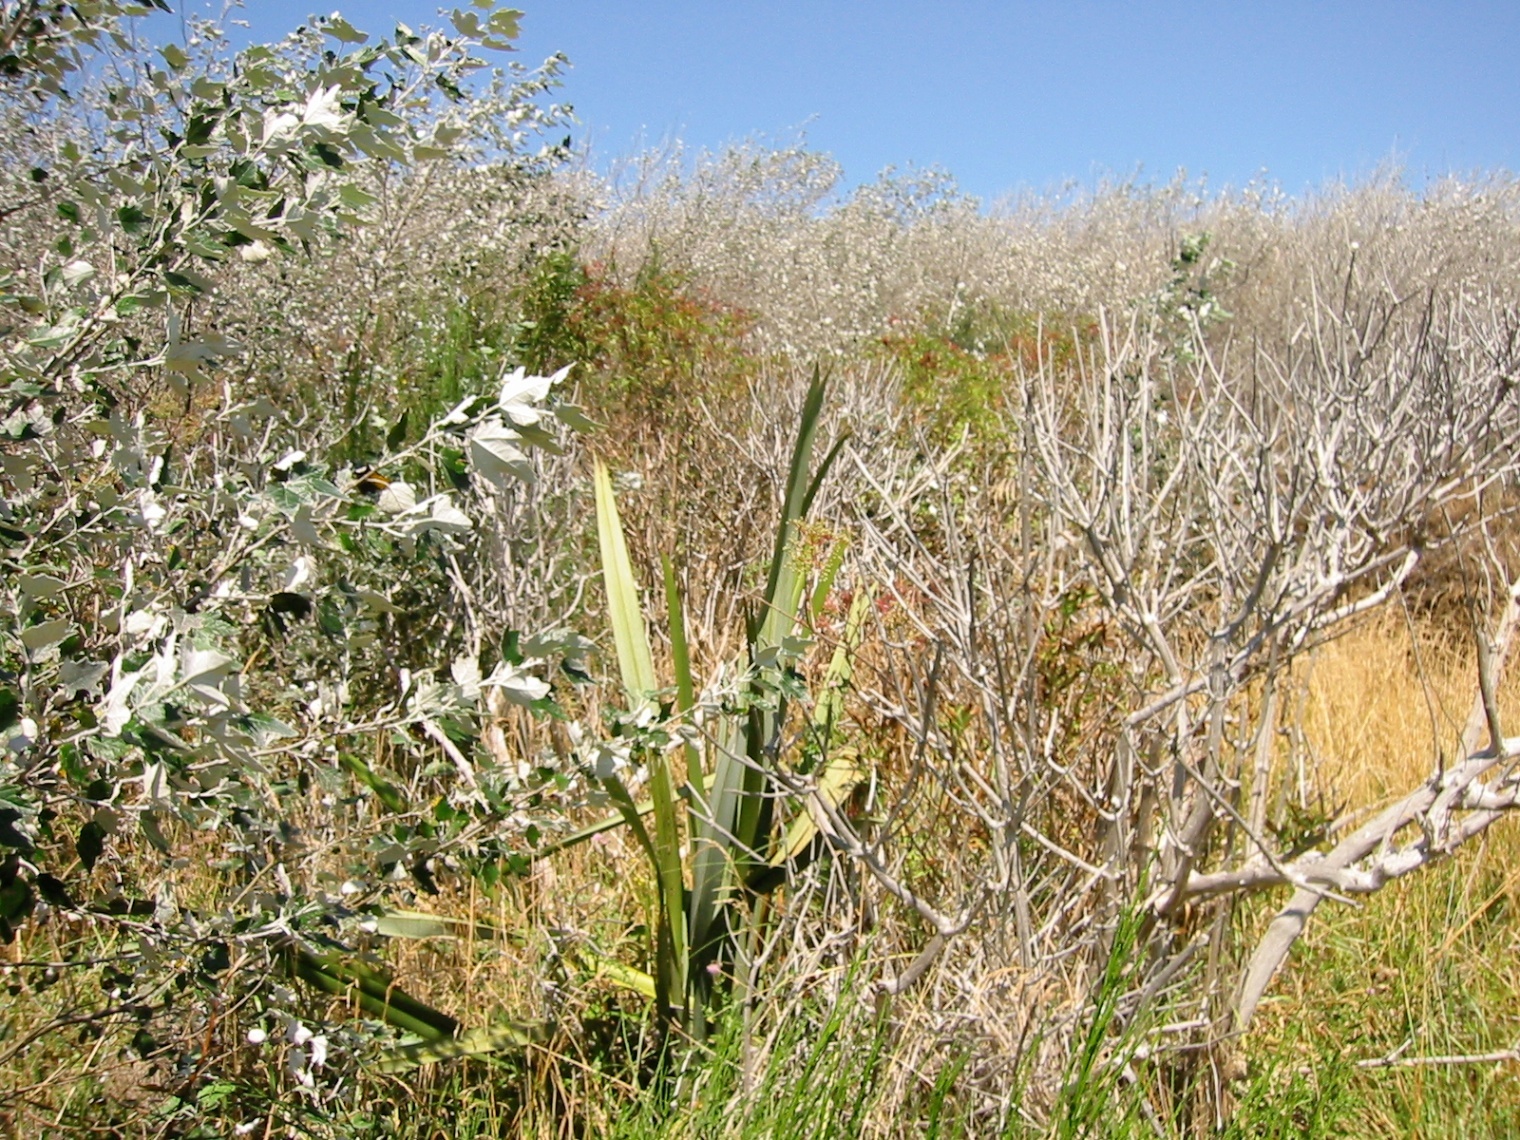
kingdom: Plantae
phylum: Tracheophyta
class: Magnoliopsida
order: Malpighiales
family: Salicaceae
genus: Populus
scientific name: Populus alba
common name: White poplar
